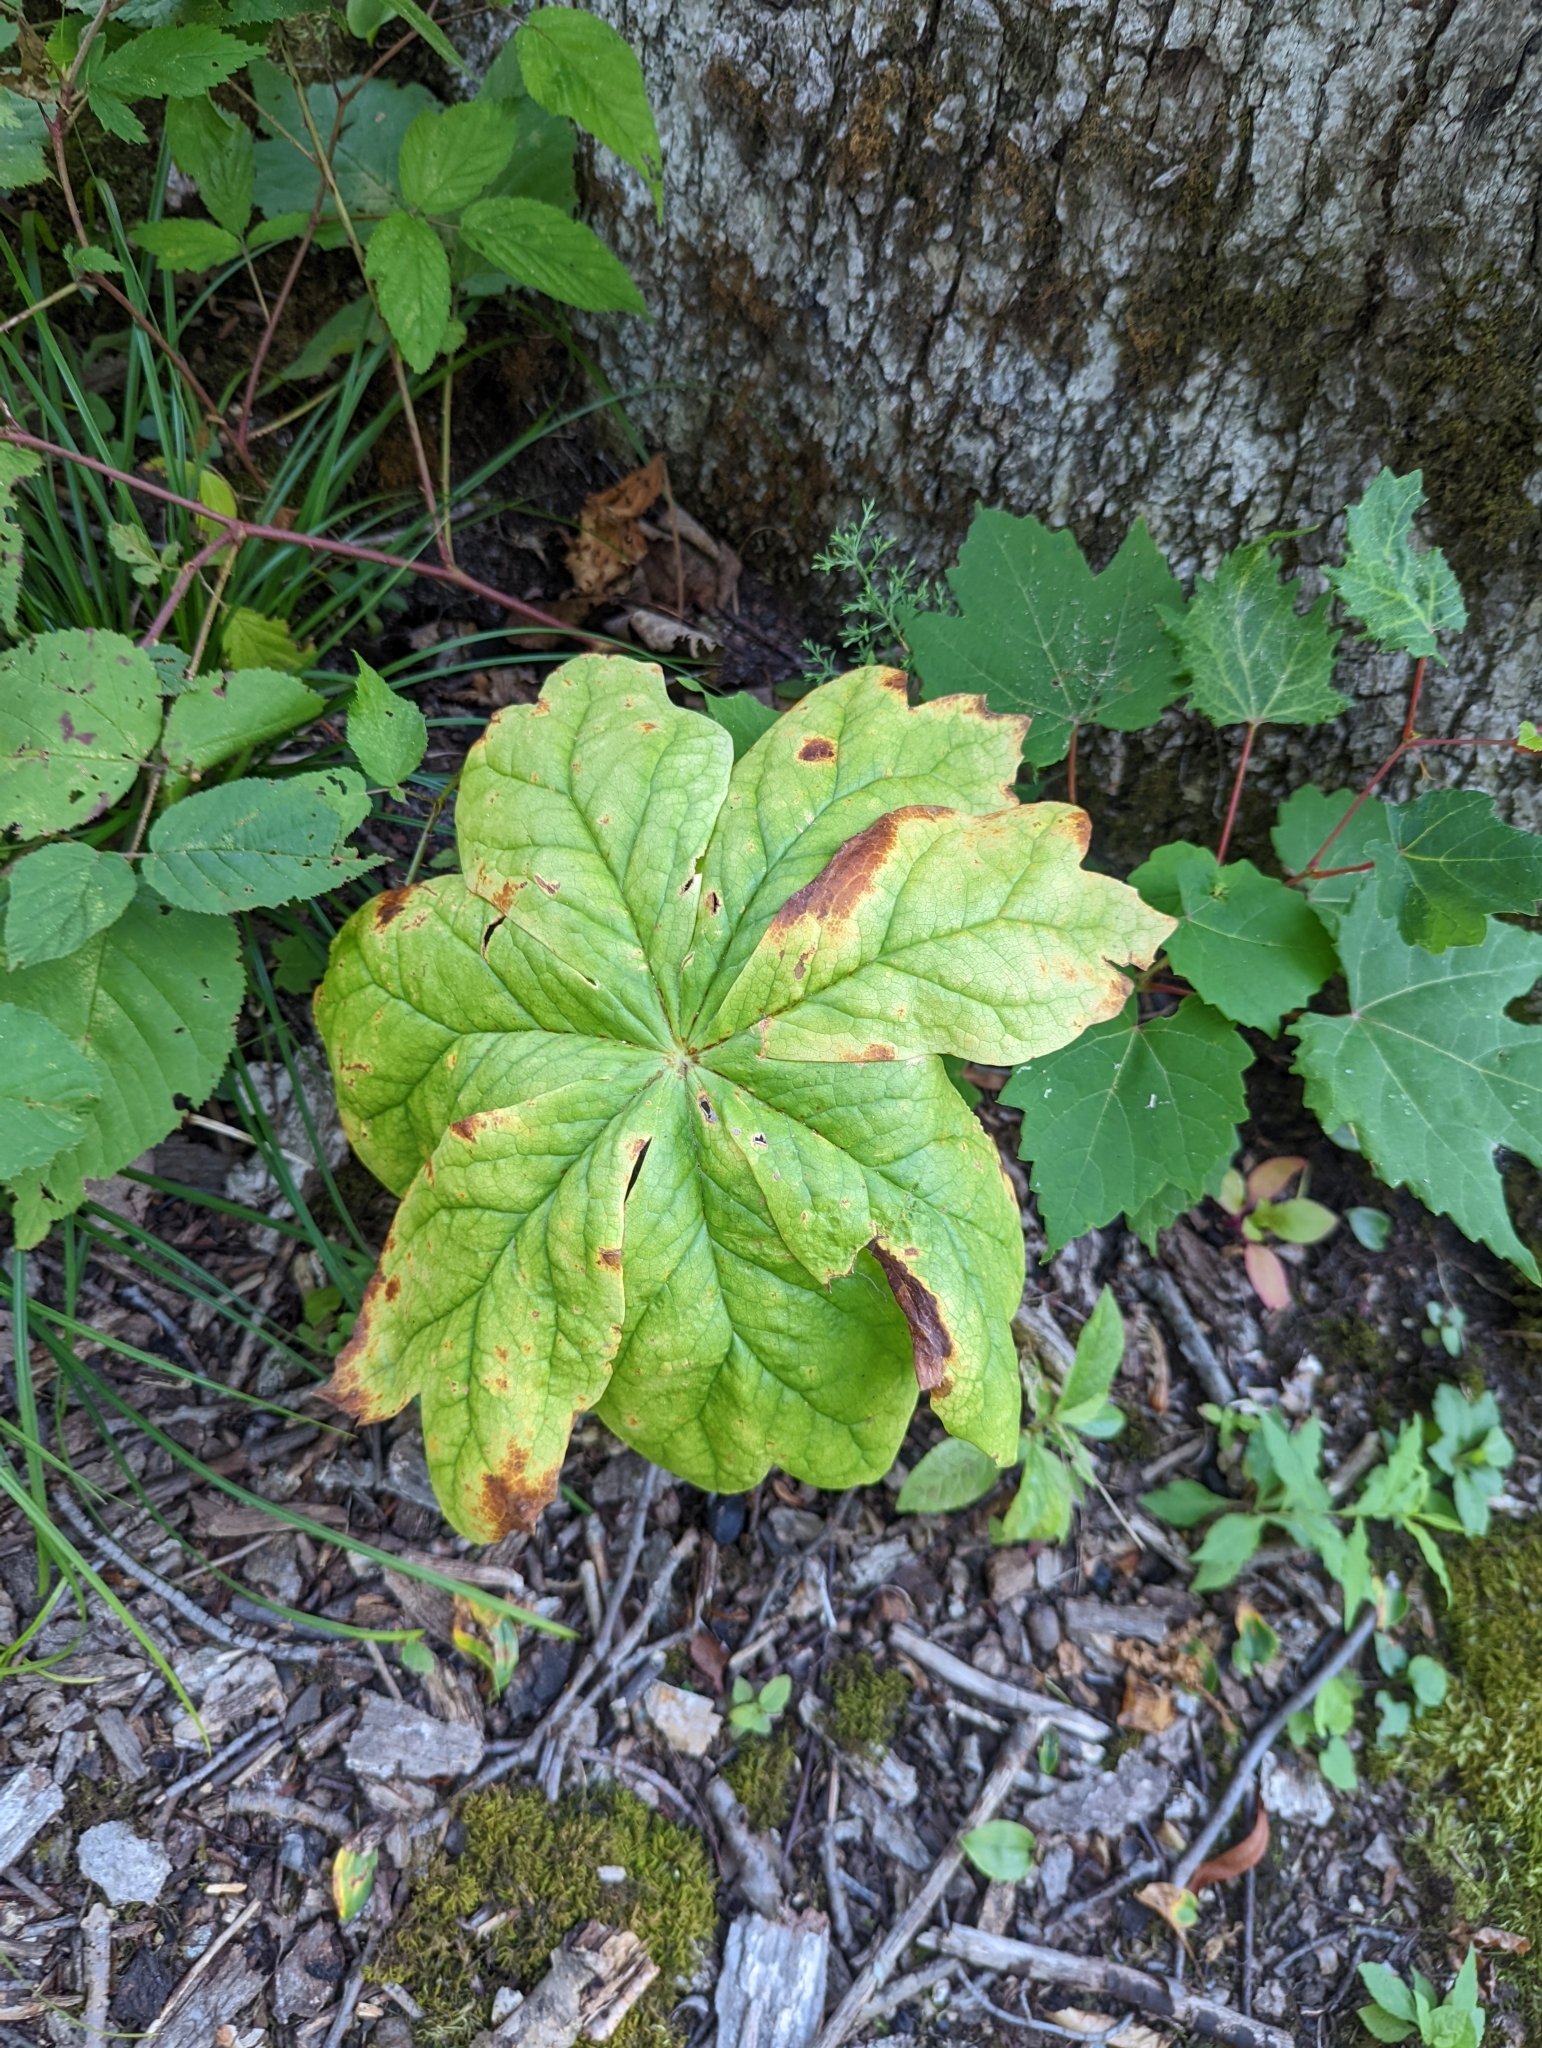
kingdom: Plantae
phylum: Tracheophyta
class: Magnoliopsida
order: Ranunculales
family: Berberidaceae
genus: Podophyllum
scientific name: Podophyllum peltatum
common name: Wild mandrake
